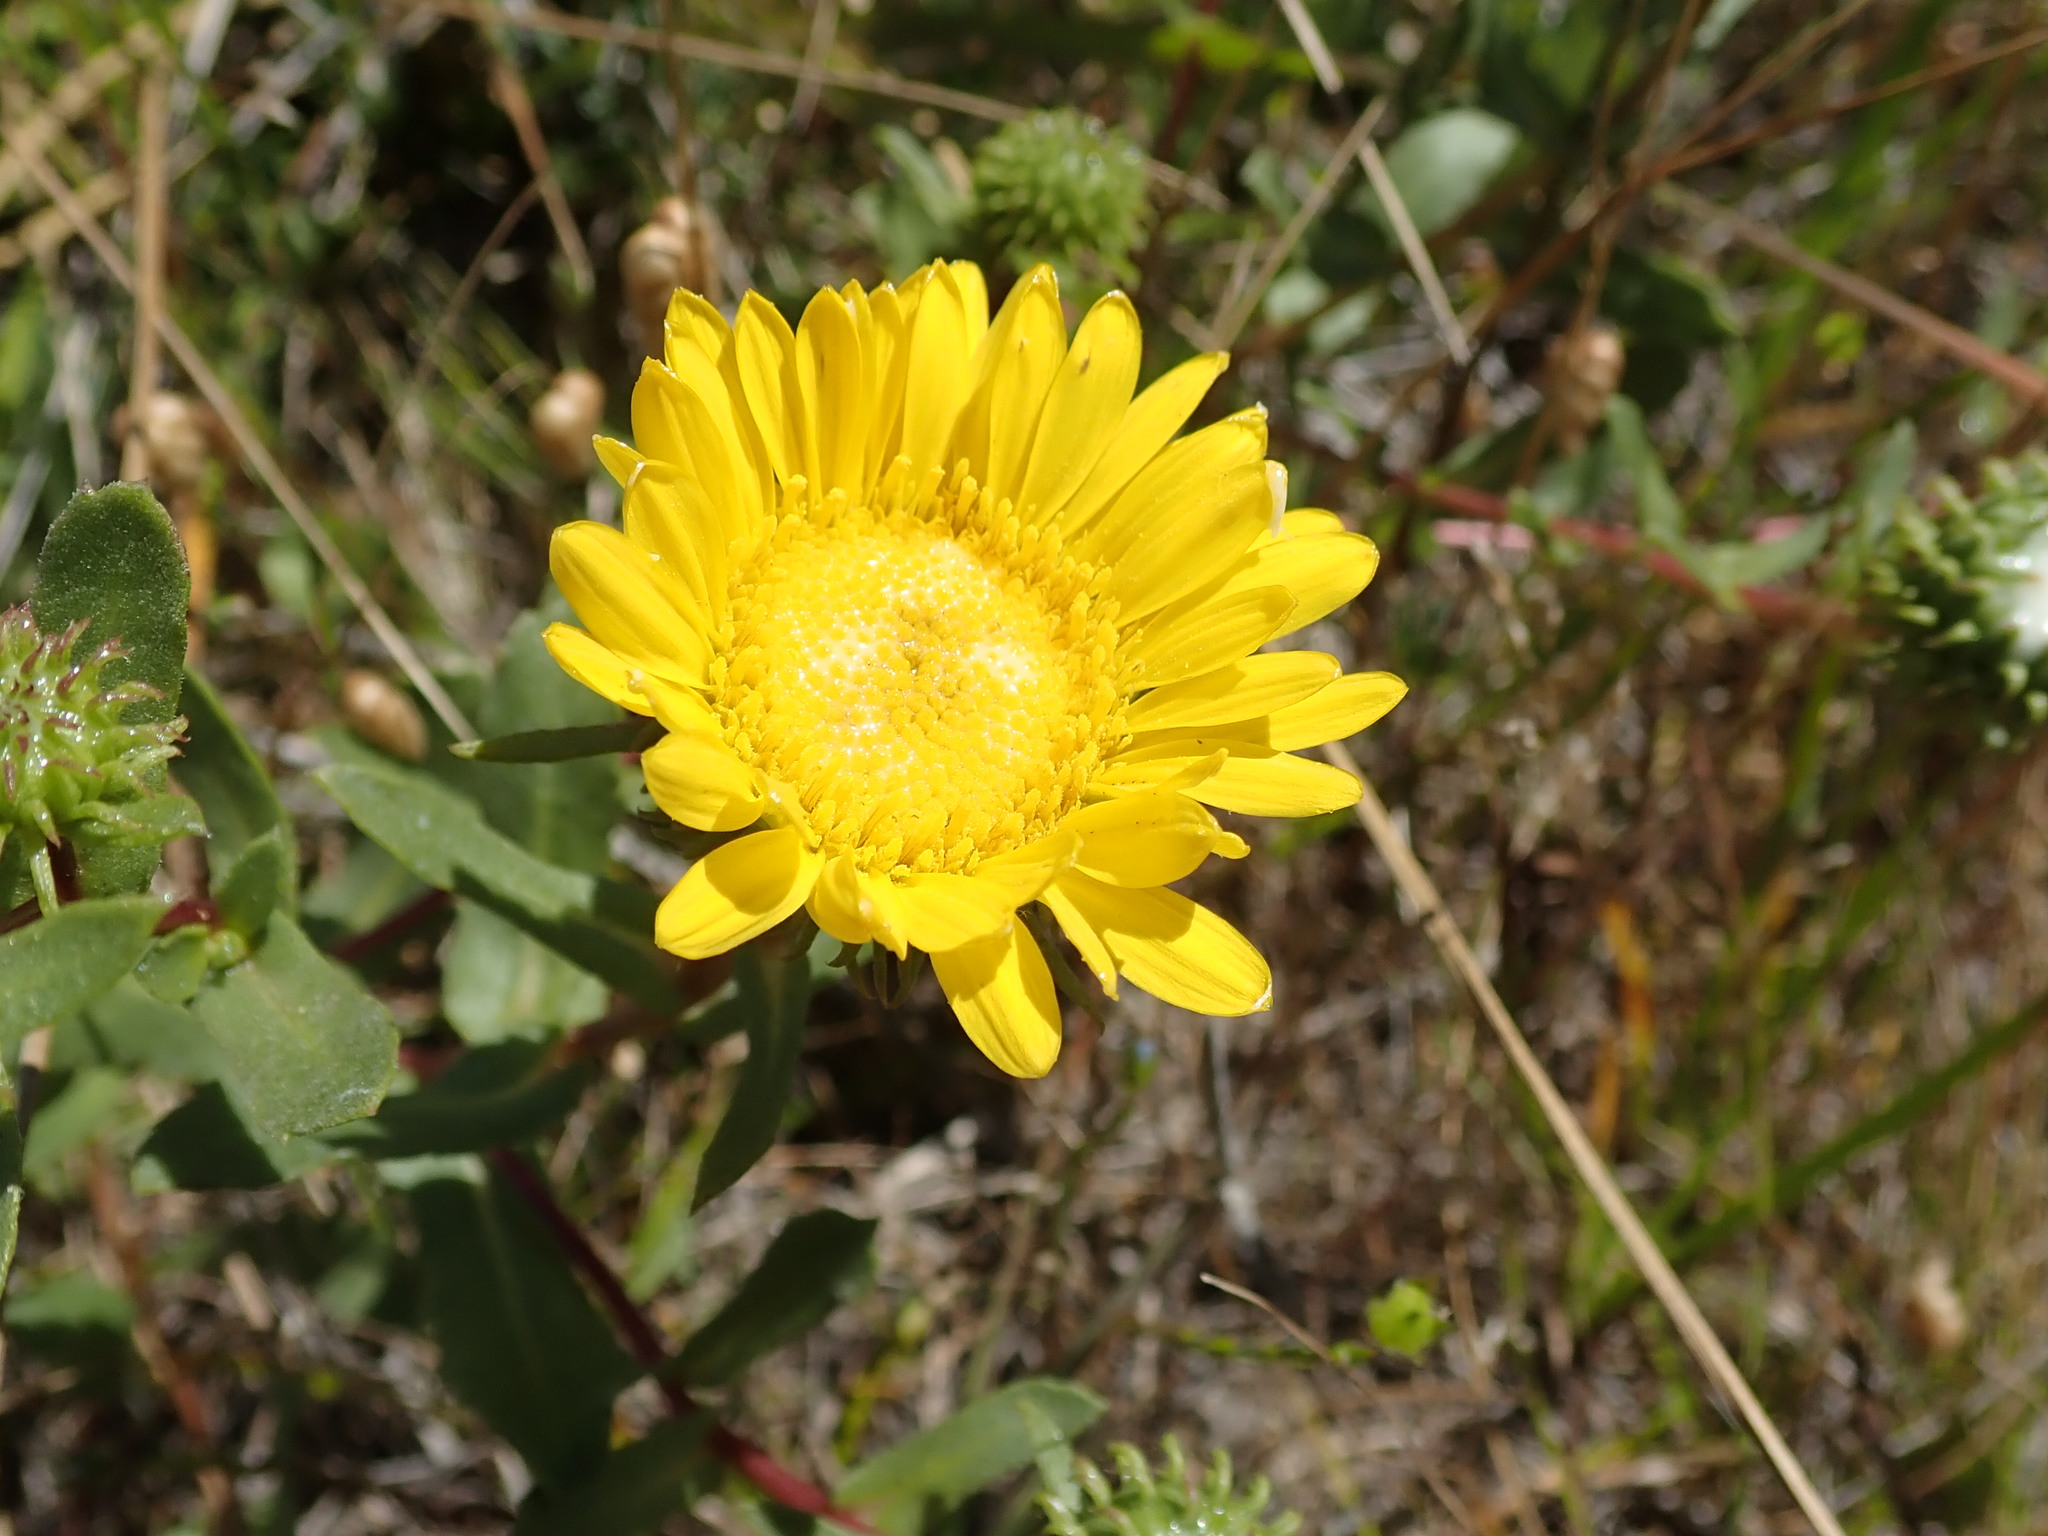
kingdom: Plantae
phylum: Tracheophyta
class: Magnoliopsida
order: Asterales
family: Asteraceae
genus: Grindelia
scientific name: Grindelia hirsutula
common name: Hairy gumweed
